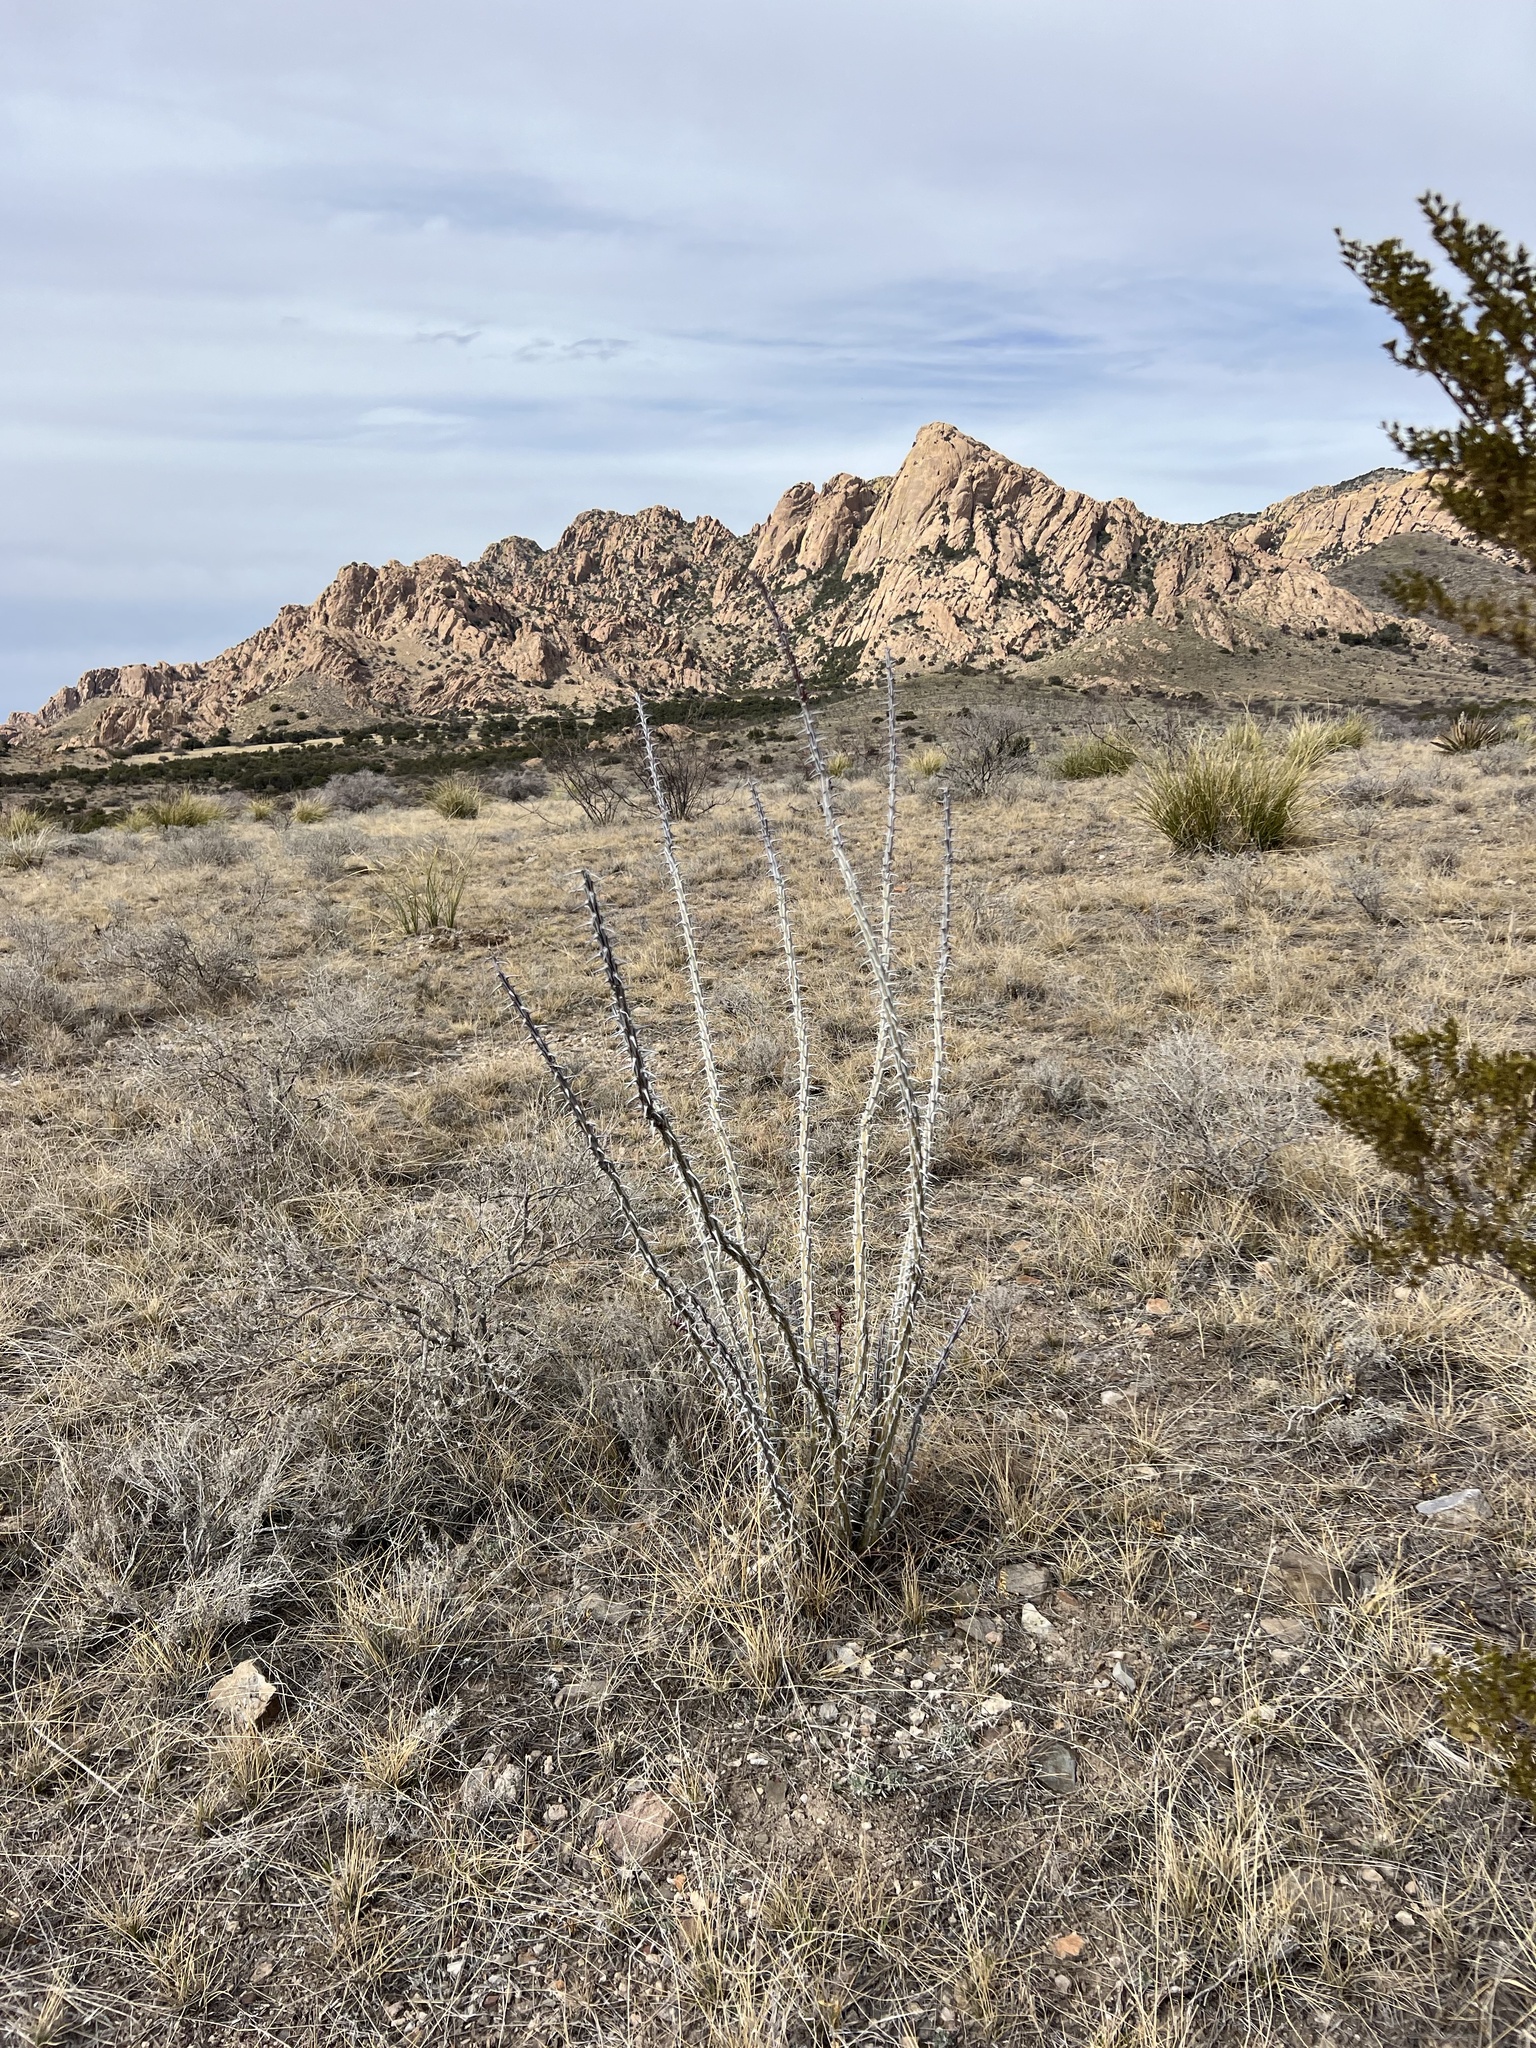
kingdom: Plantae
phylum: Tracheophyta
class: Magnoliopsida
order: Ericales
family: Fouquieriaceae
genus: Fouquieria
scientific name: Fouquieria splendens
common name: Vine-cactus
